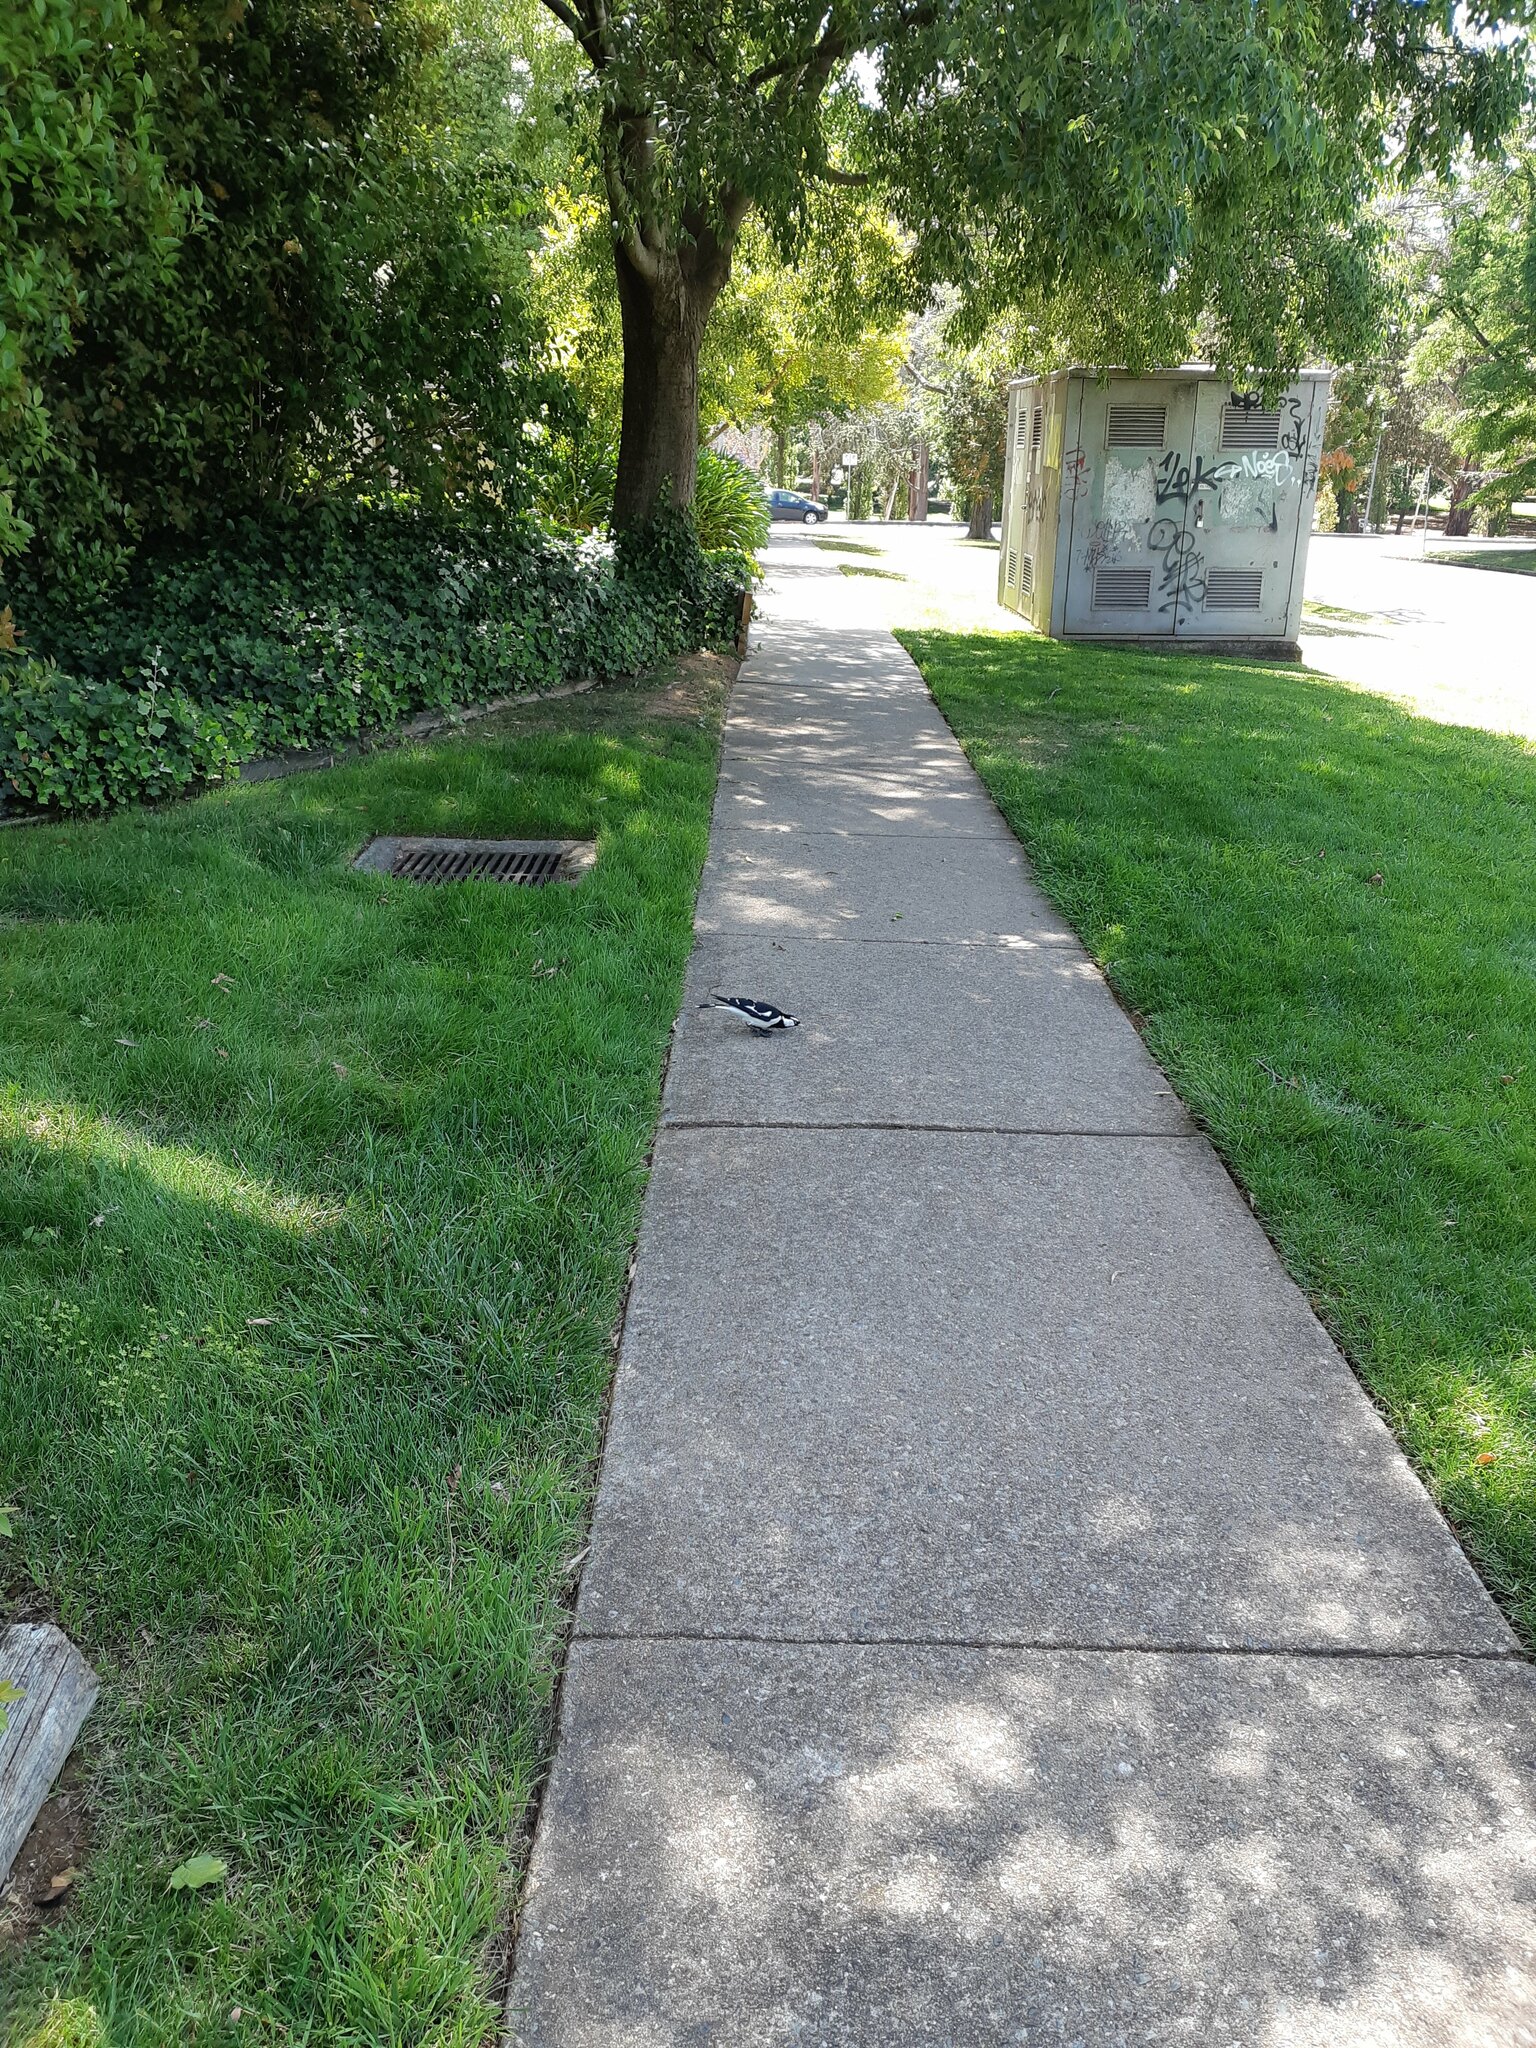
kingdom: Animalia
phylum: Chordata
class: Aves
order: Passeriformes
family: Monarchidae
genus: Grallina
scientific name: Grallina cyanoleuca
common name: Magpie-lark
